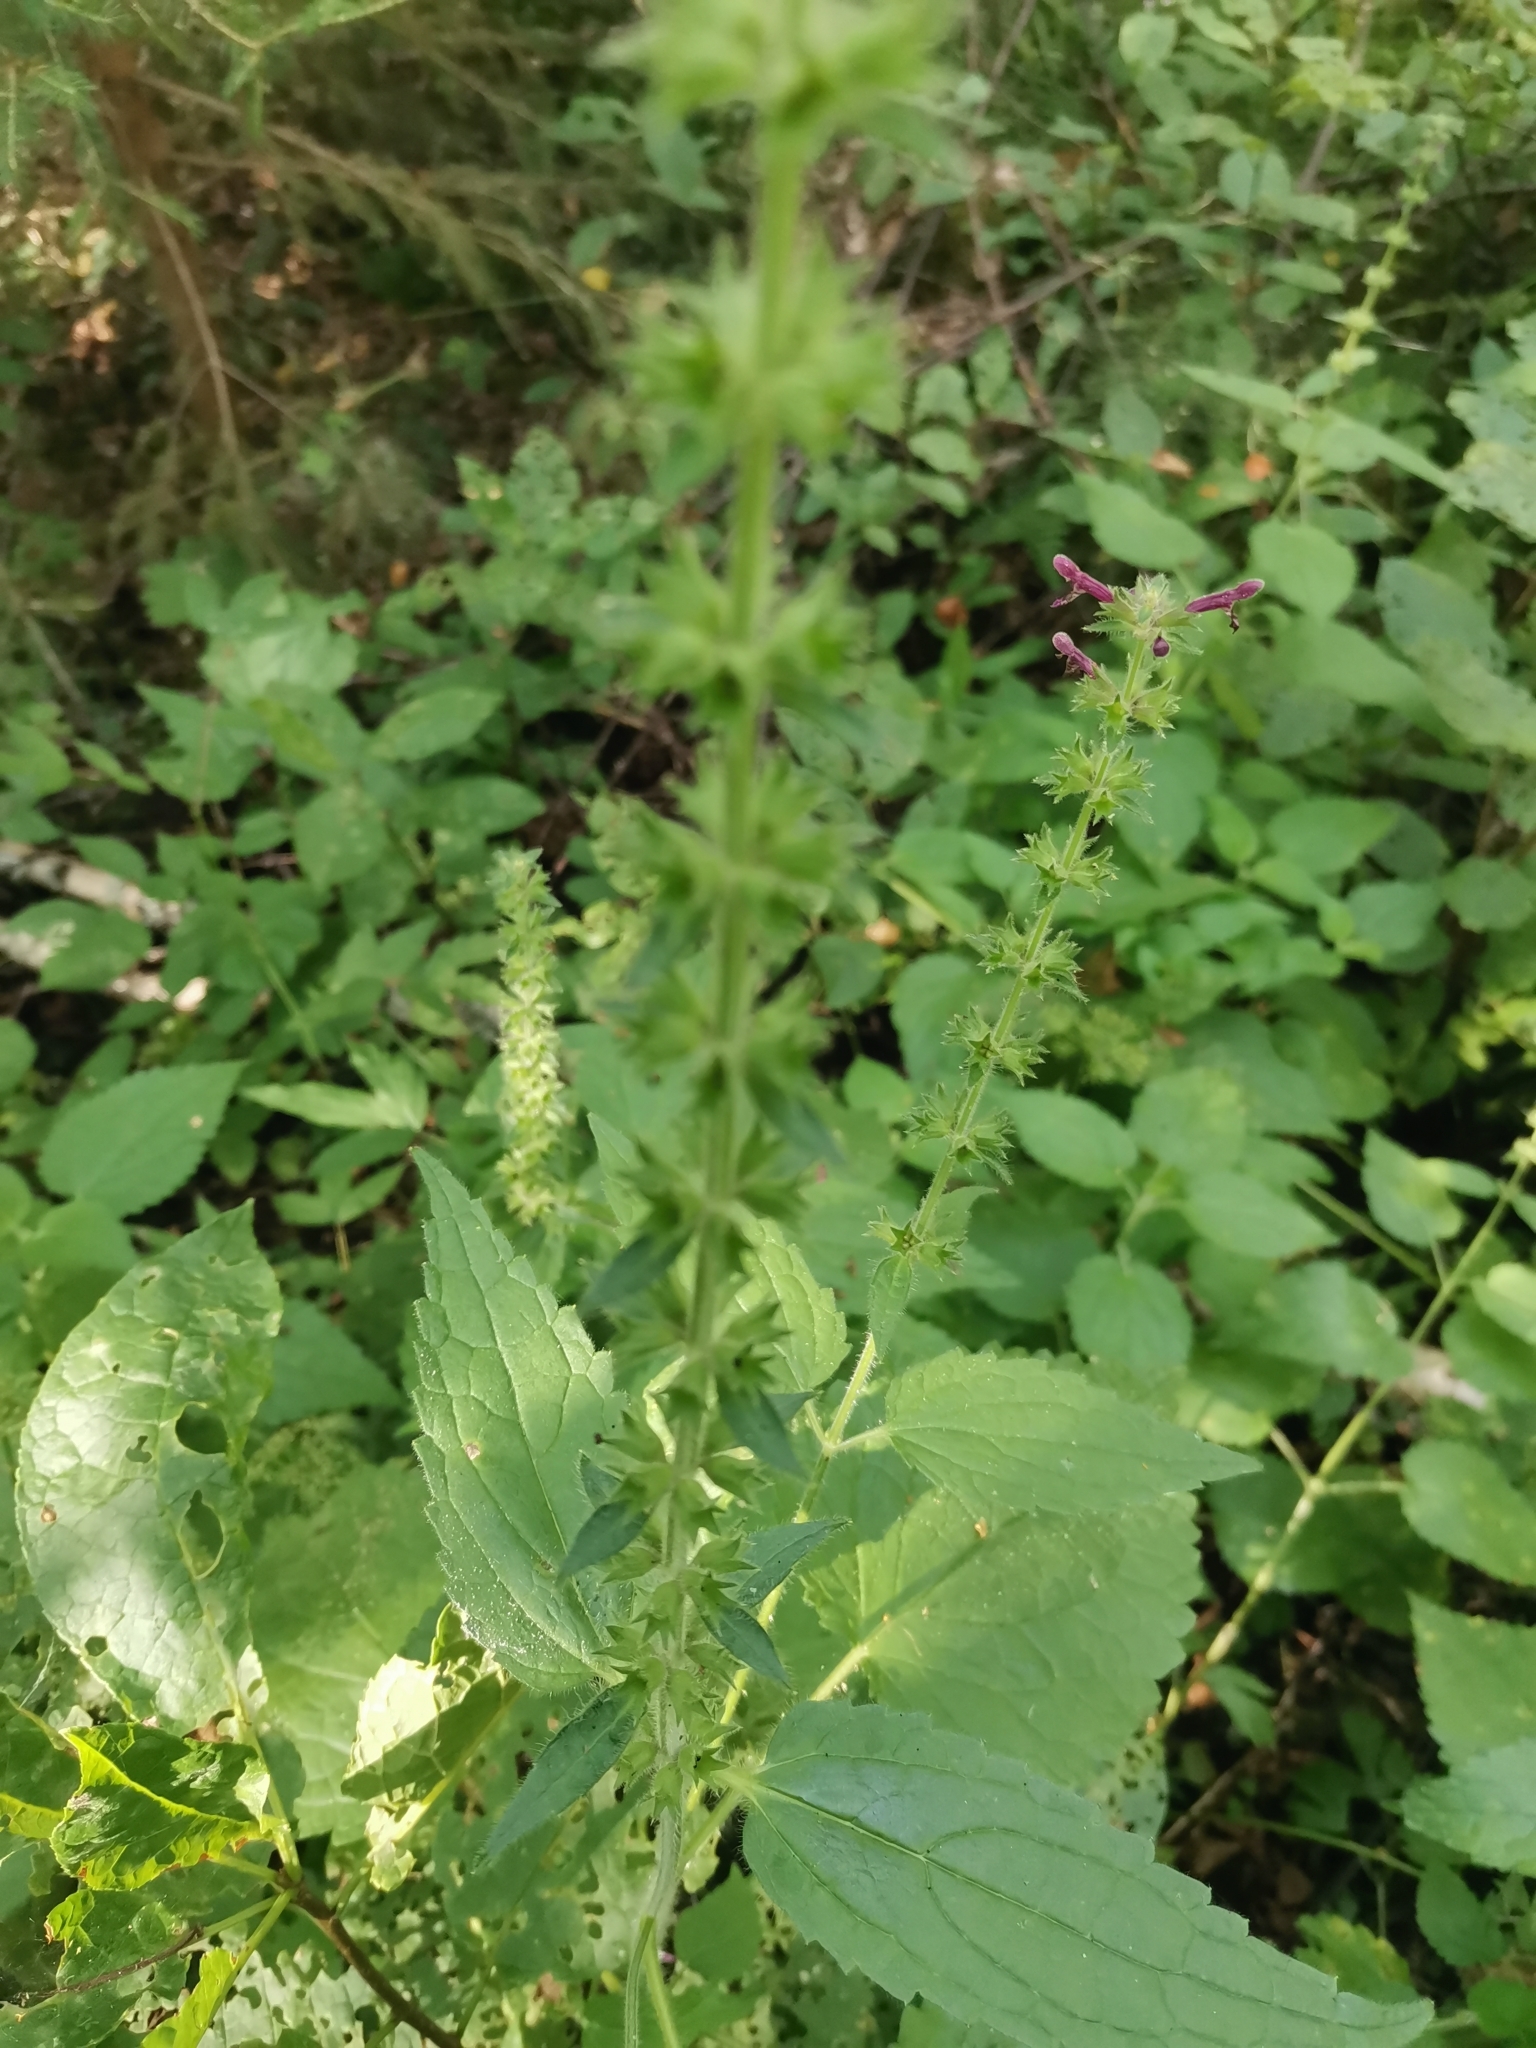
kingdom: Plantae
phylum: Tracheophyta
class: Magnoliopsida
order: Lamiales
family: Lamiaceae
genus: Stachys
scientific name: Stachys sylvatica
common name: Hedge woundwort
